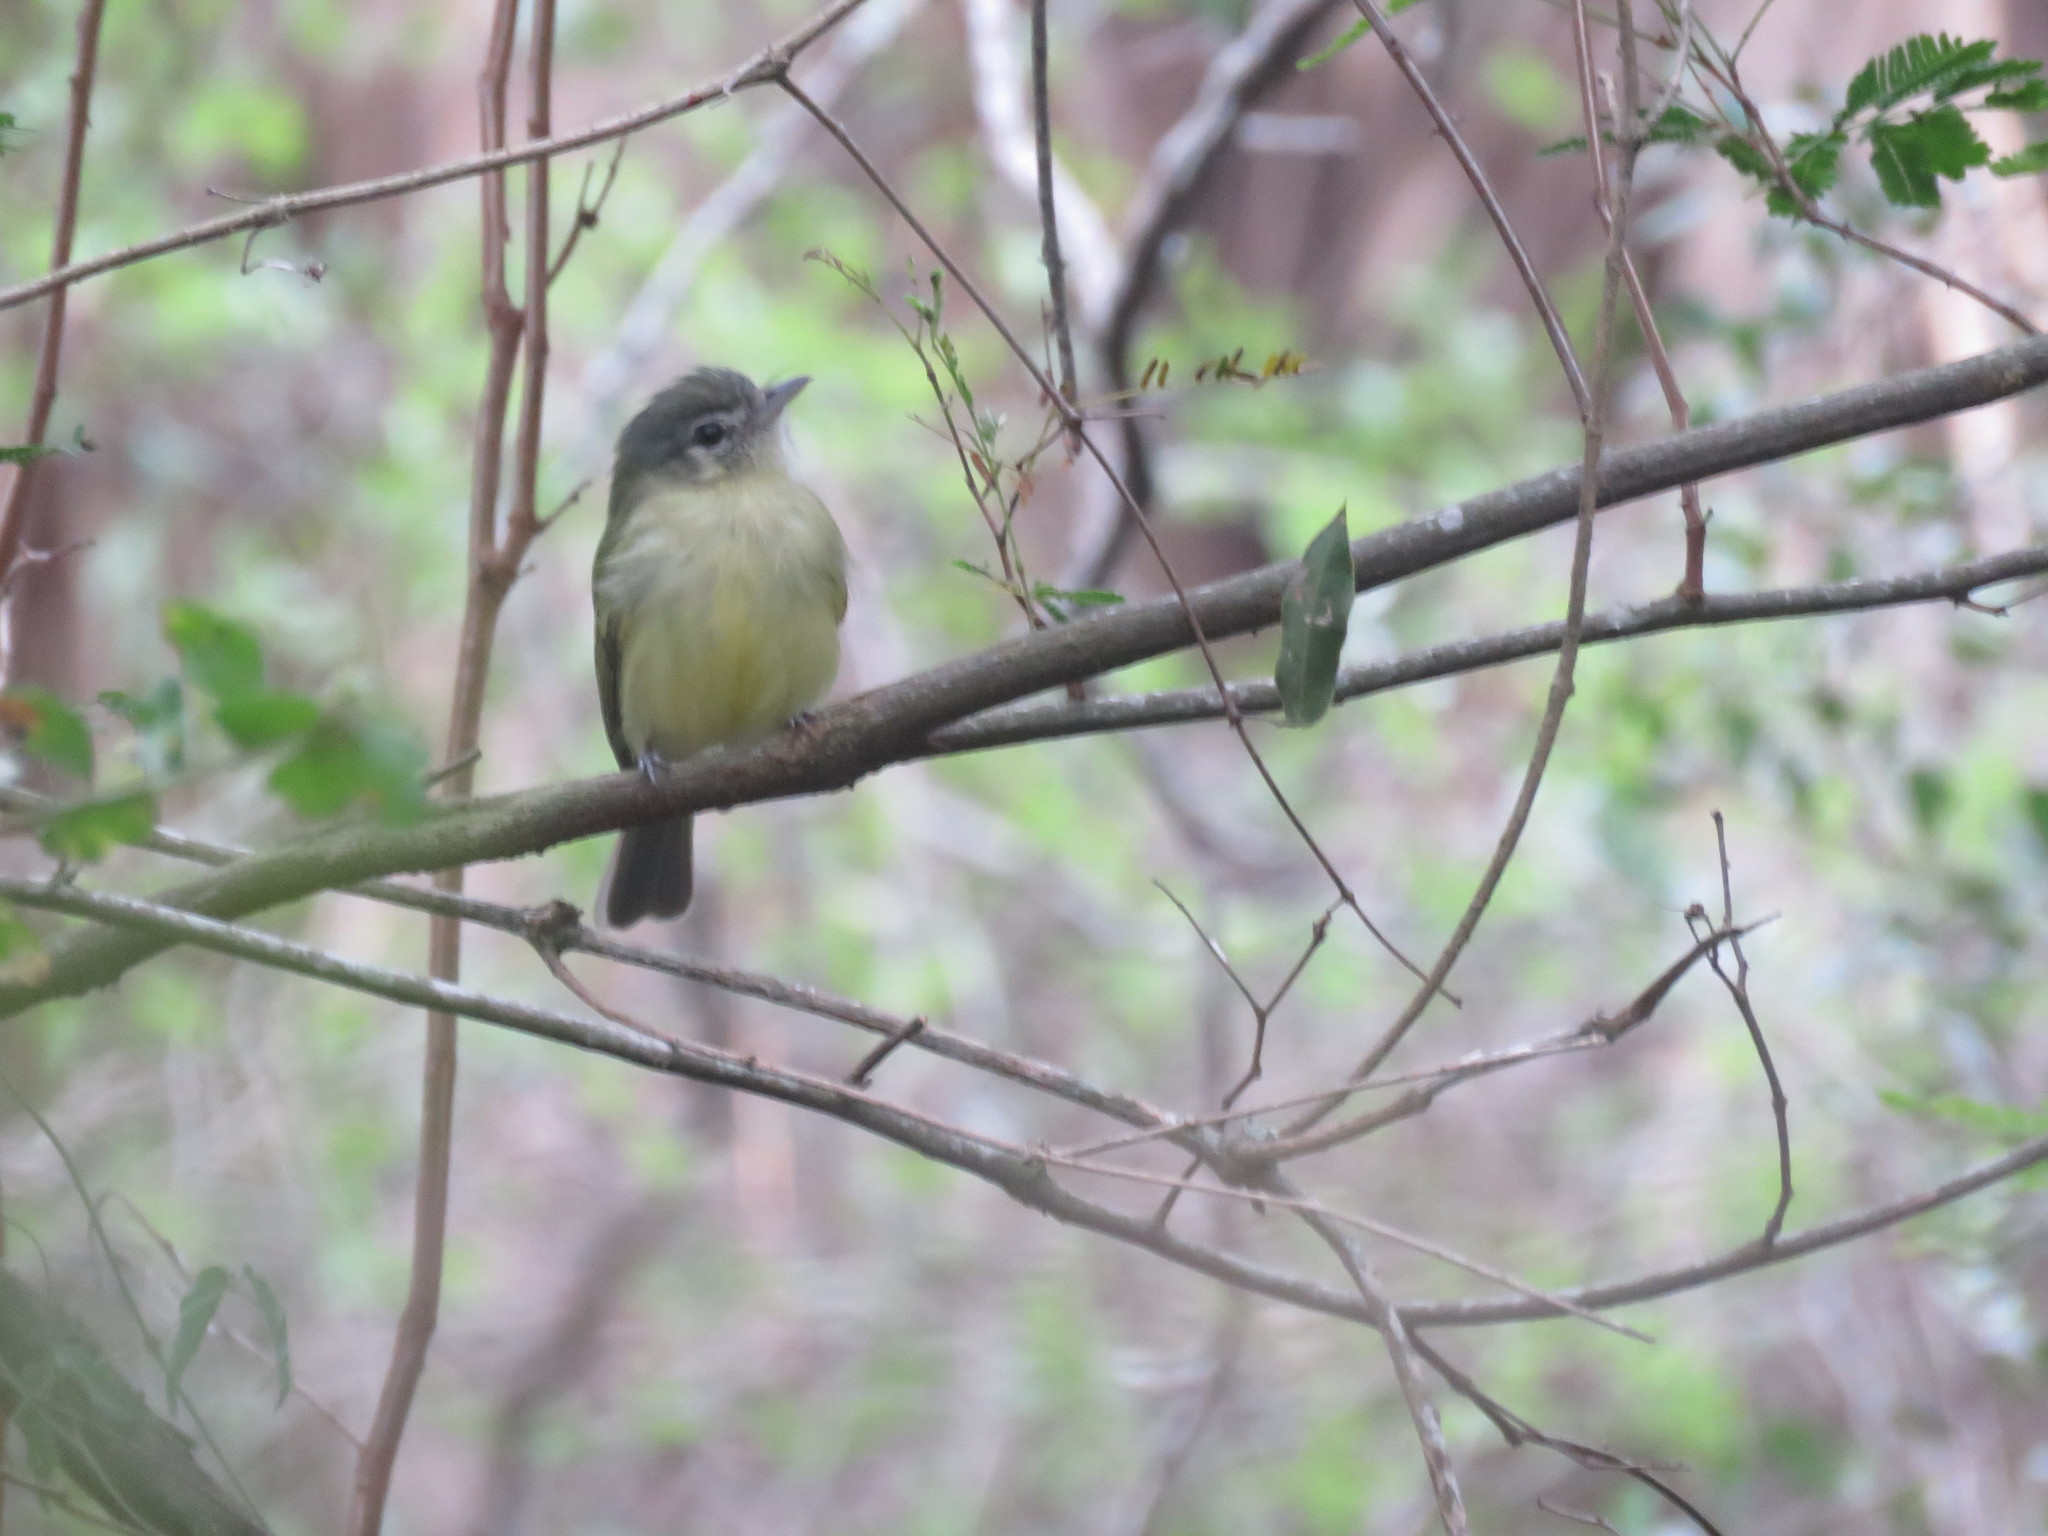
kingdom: Animalia
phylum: Chordata
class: Aves
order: Passeriformes
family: Tyrannidae
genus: Tolmomyias
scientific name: Tolmomyias sulphurescens
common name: Yellow-olive flycatcher
